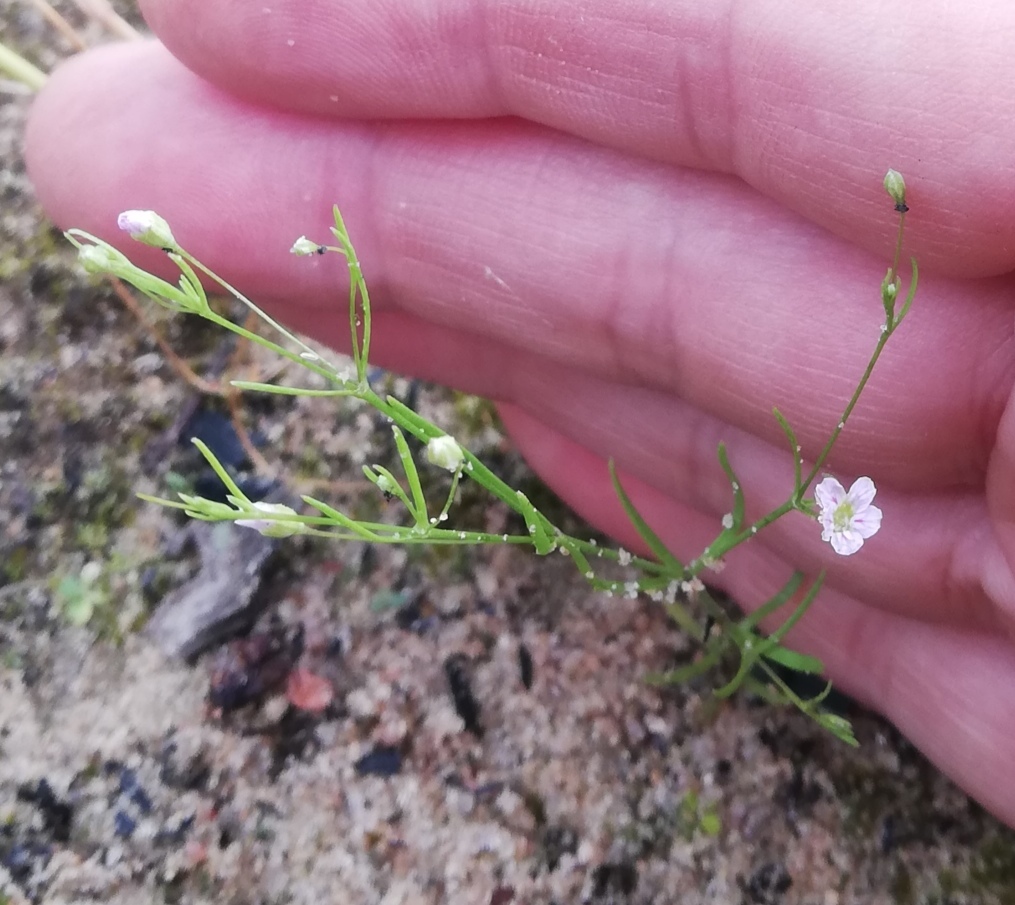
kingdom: Plantae
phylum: Tracheophyta
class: Magnoliopsida
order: Caryophyllales
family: Caryophyllaceae
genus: Psammophiliella
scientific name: Psammophiliella muralis
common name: Cushion baby's-breath
